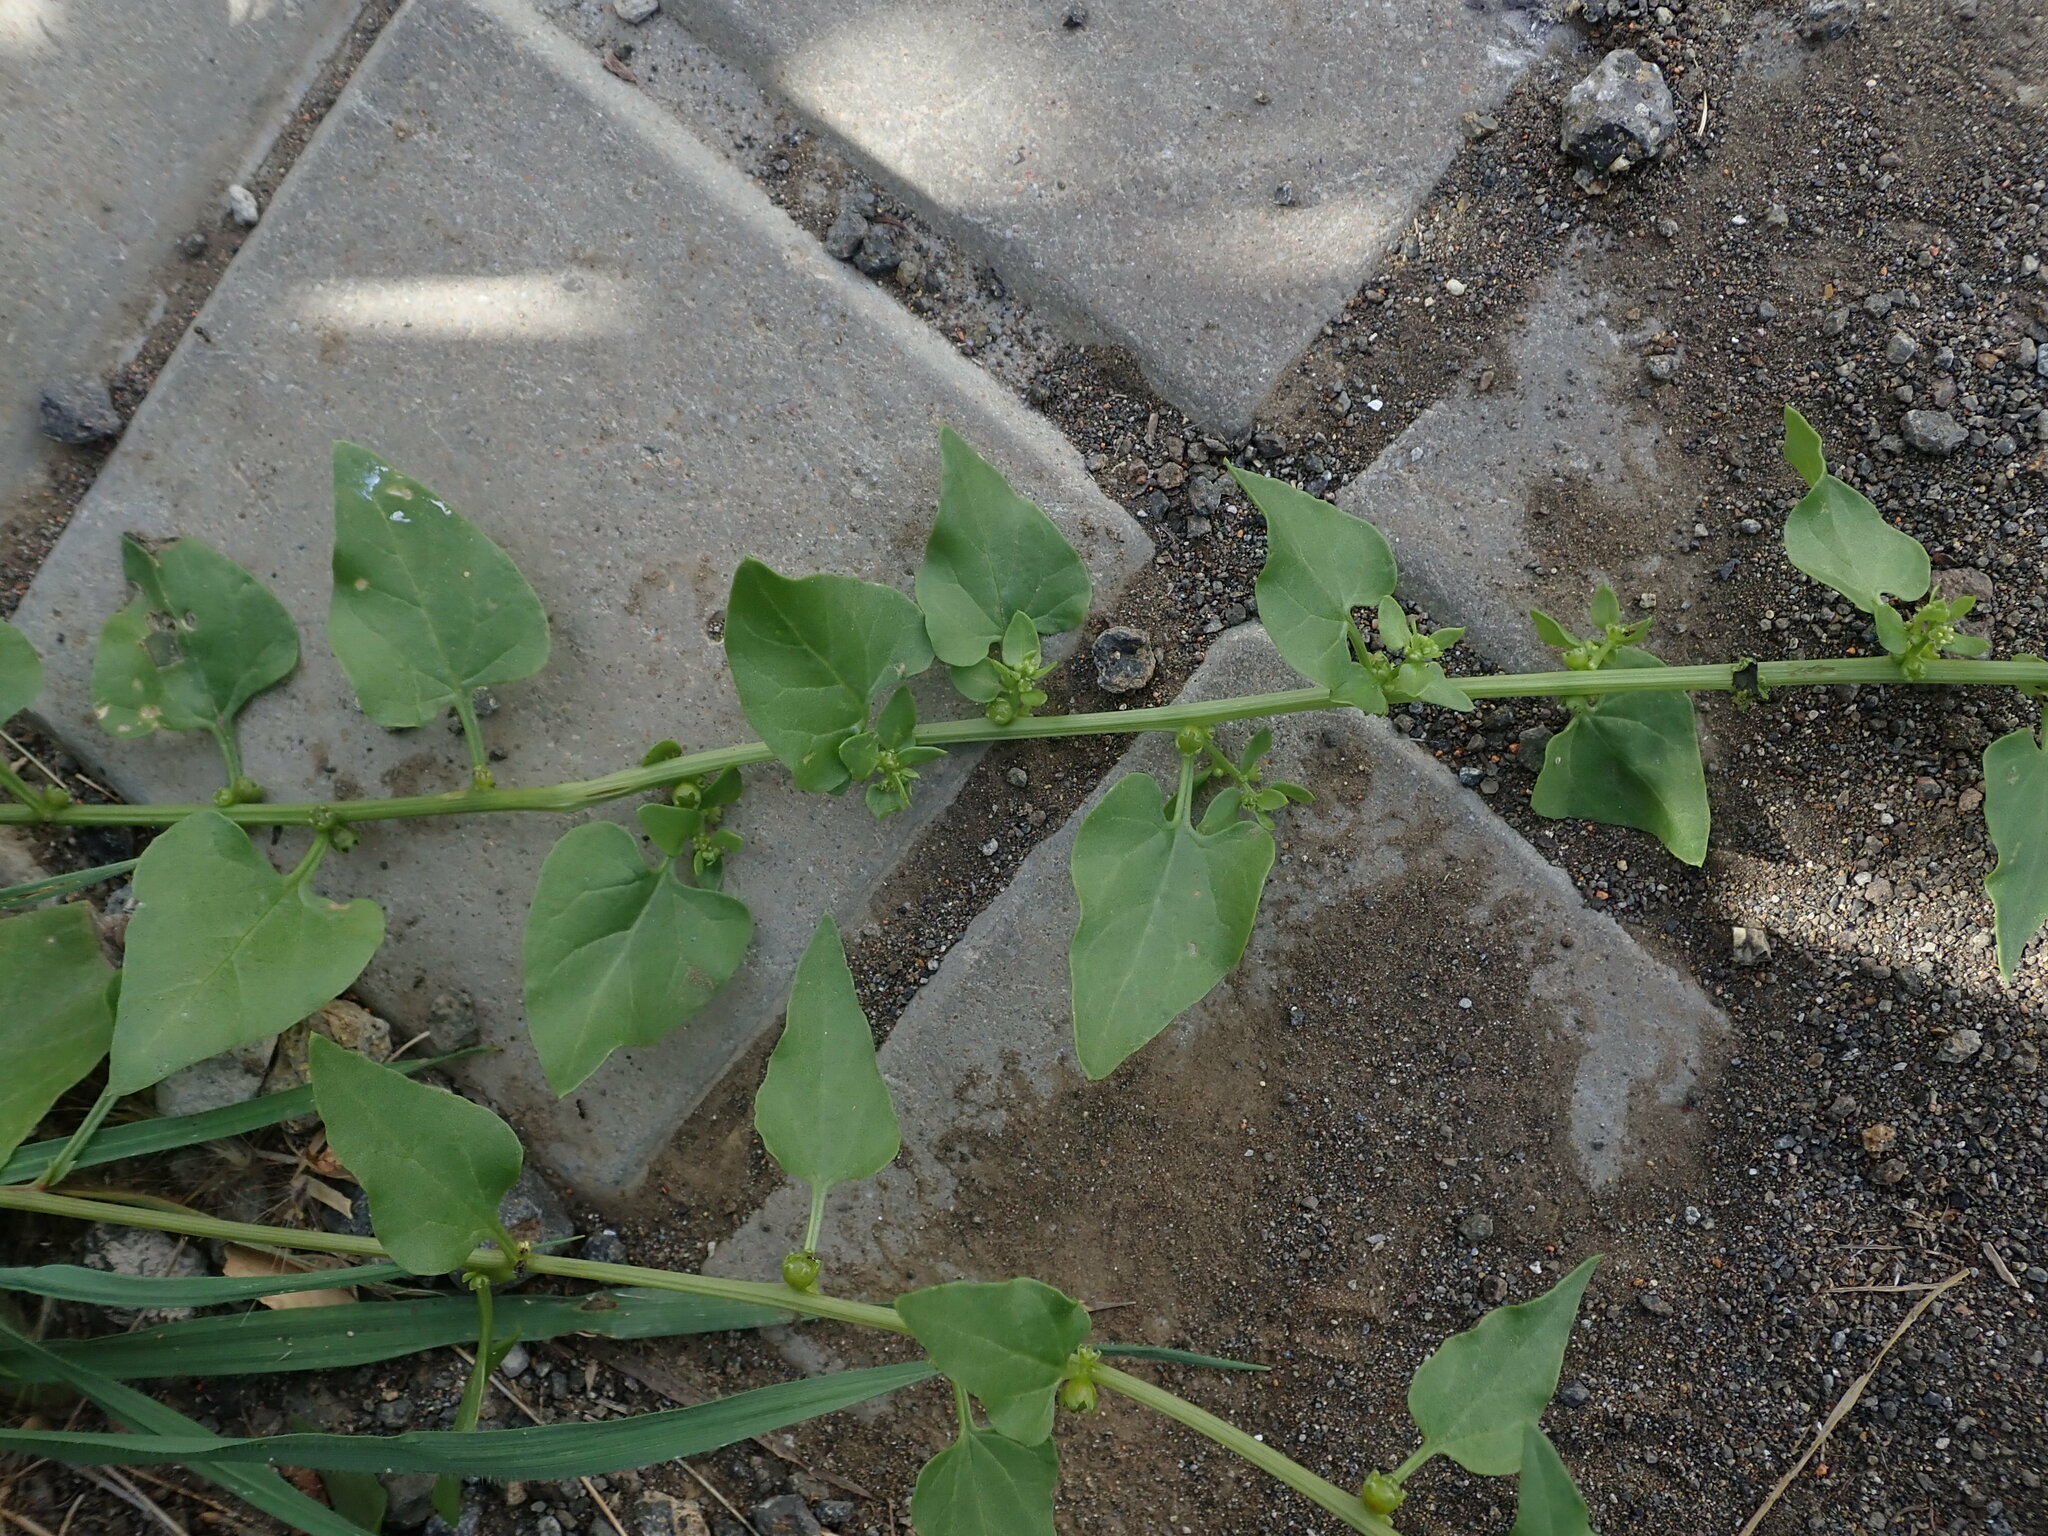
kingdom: Plantae
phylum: Tracheophyta
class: Magnoliopsida
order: Caryophyllales
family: Amaranthaceae
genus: Patellifolia
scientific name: Patellifolia procumbens
